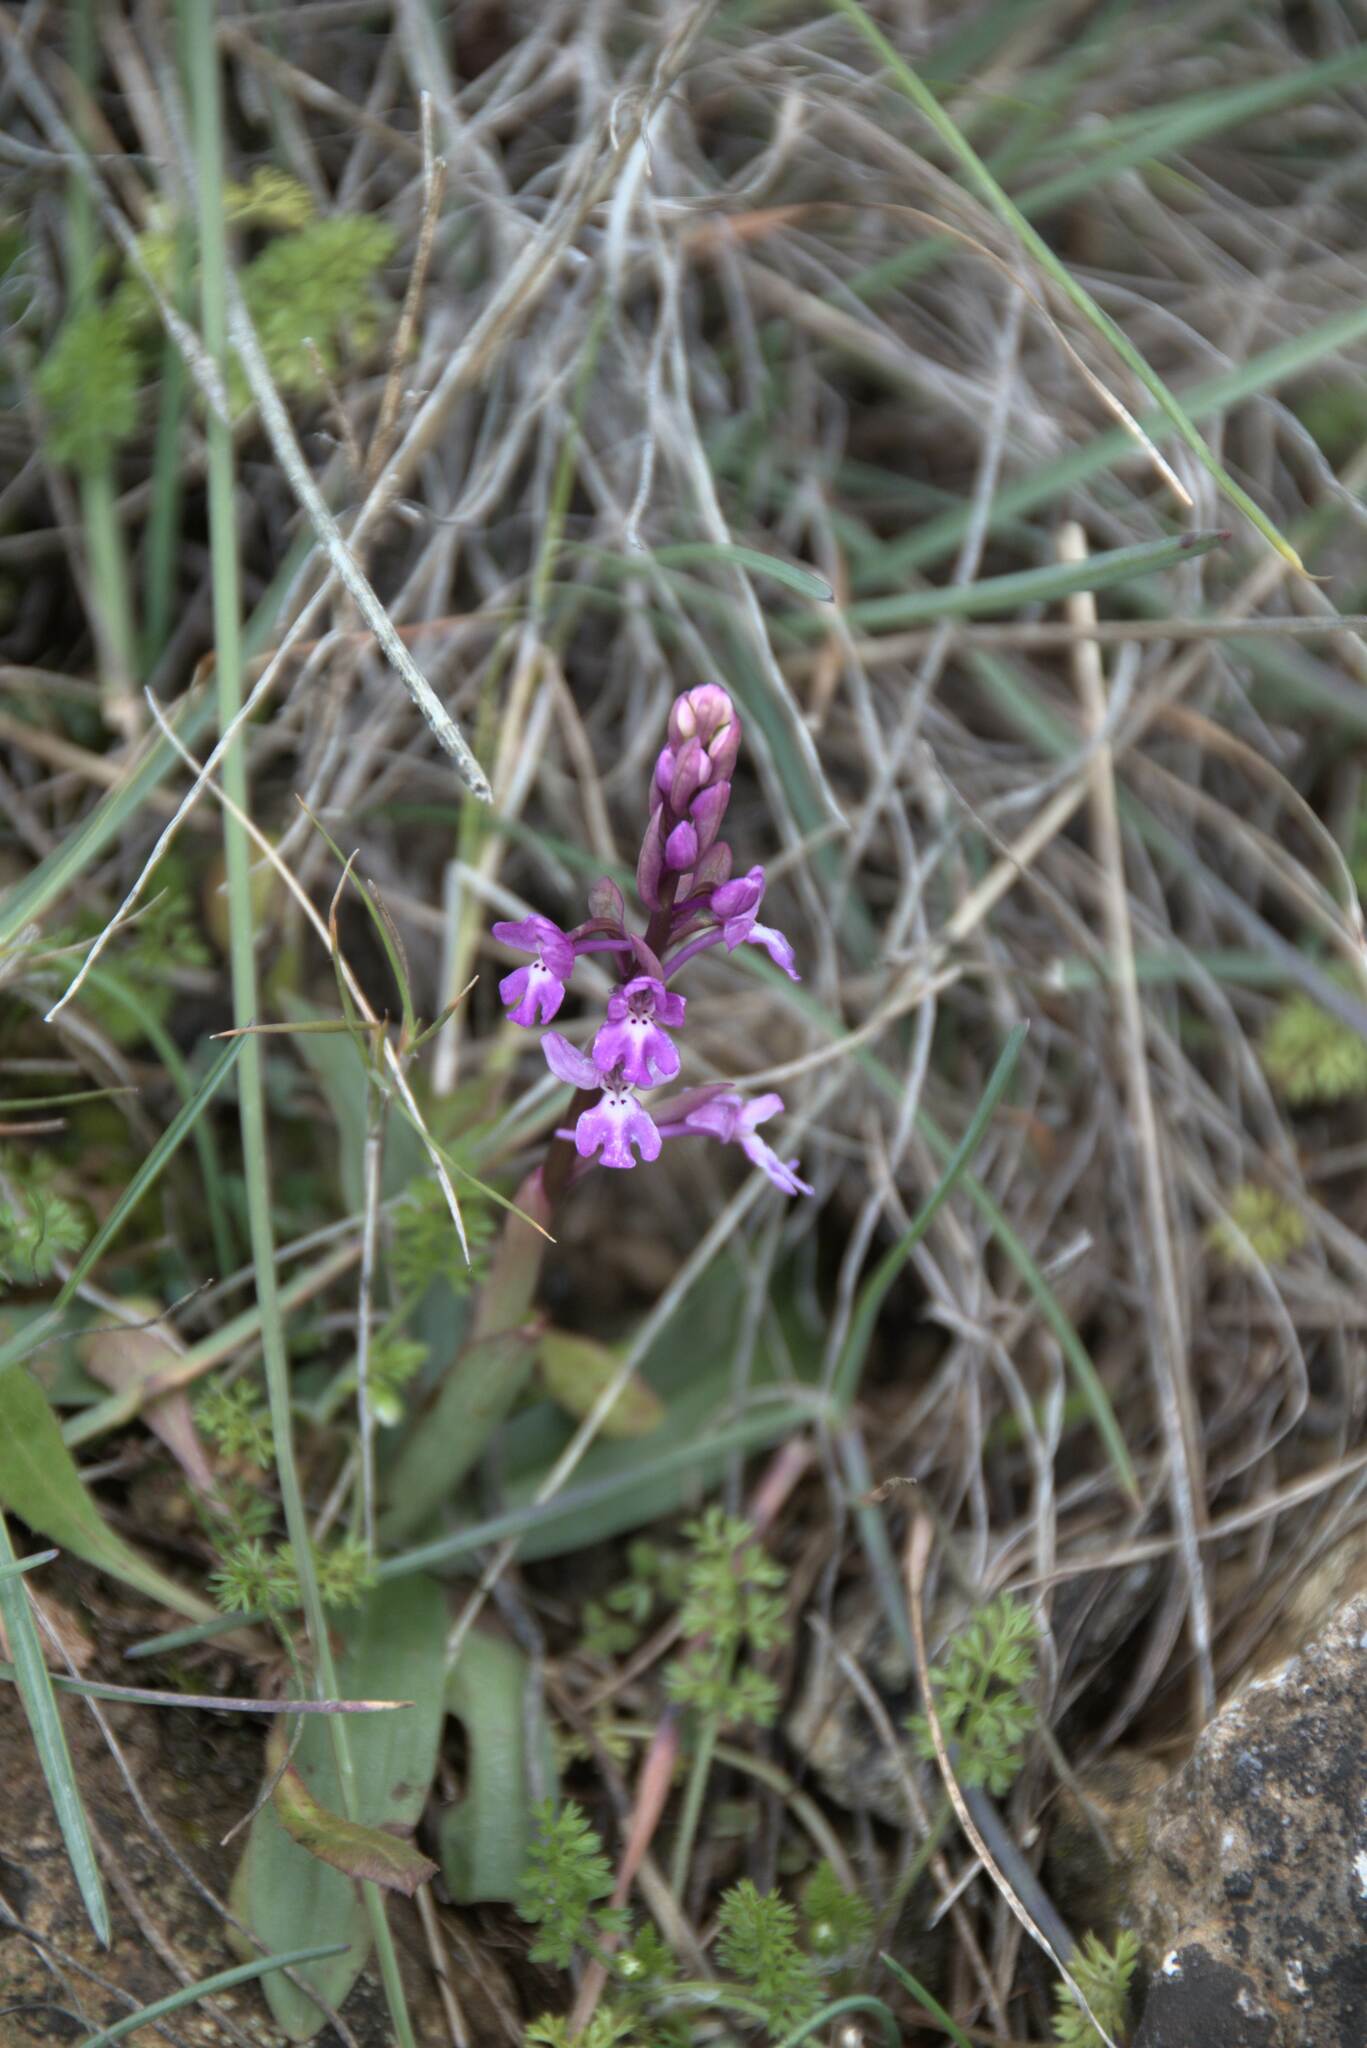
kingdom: Plantae
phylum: Tracheophyta
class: Liliopsida
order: Asparagales
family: Orchidaceae
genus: Orchis
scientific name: Orchis quadripunctata
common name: Four-spotted orchid
